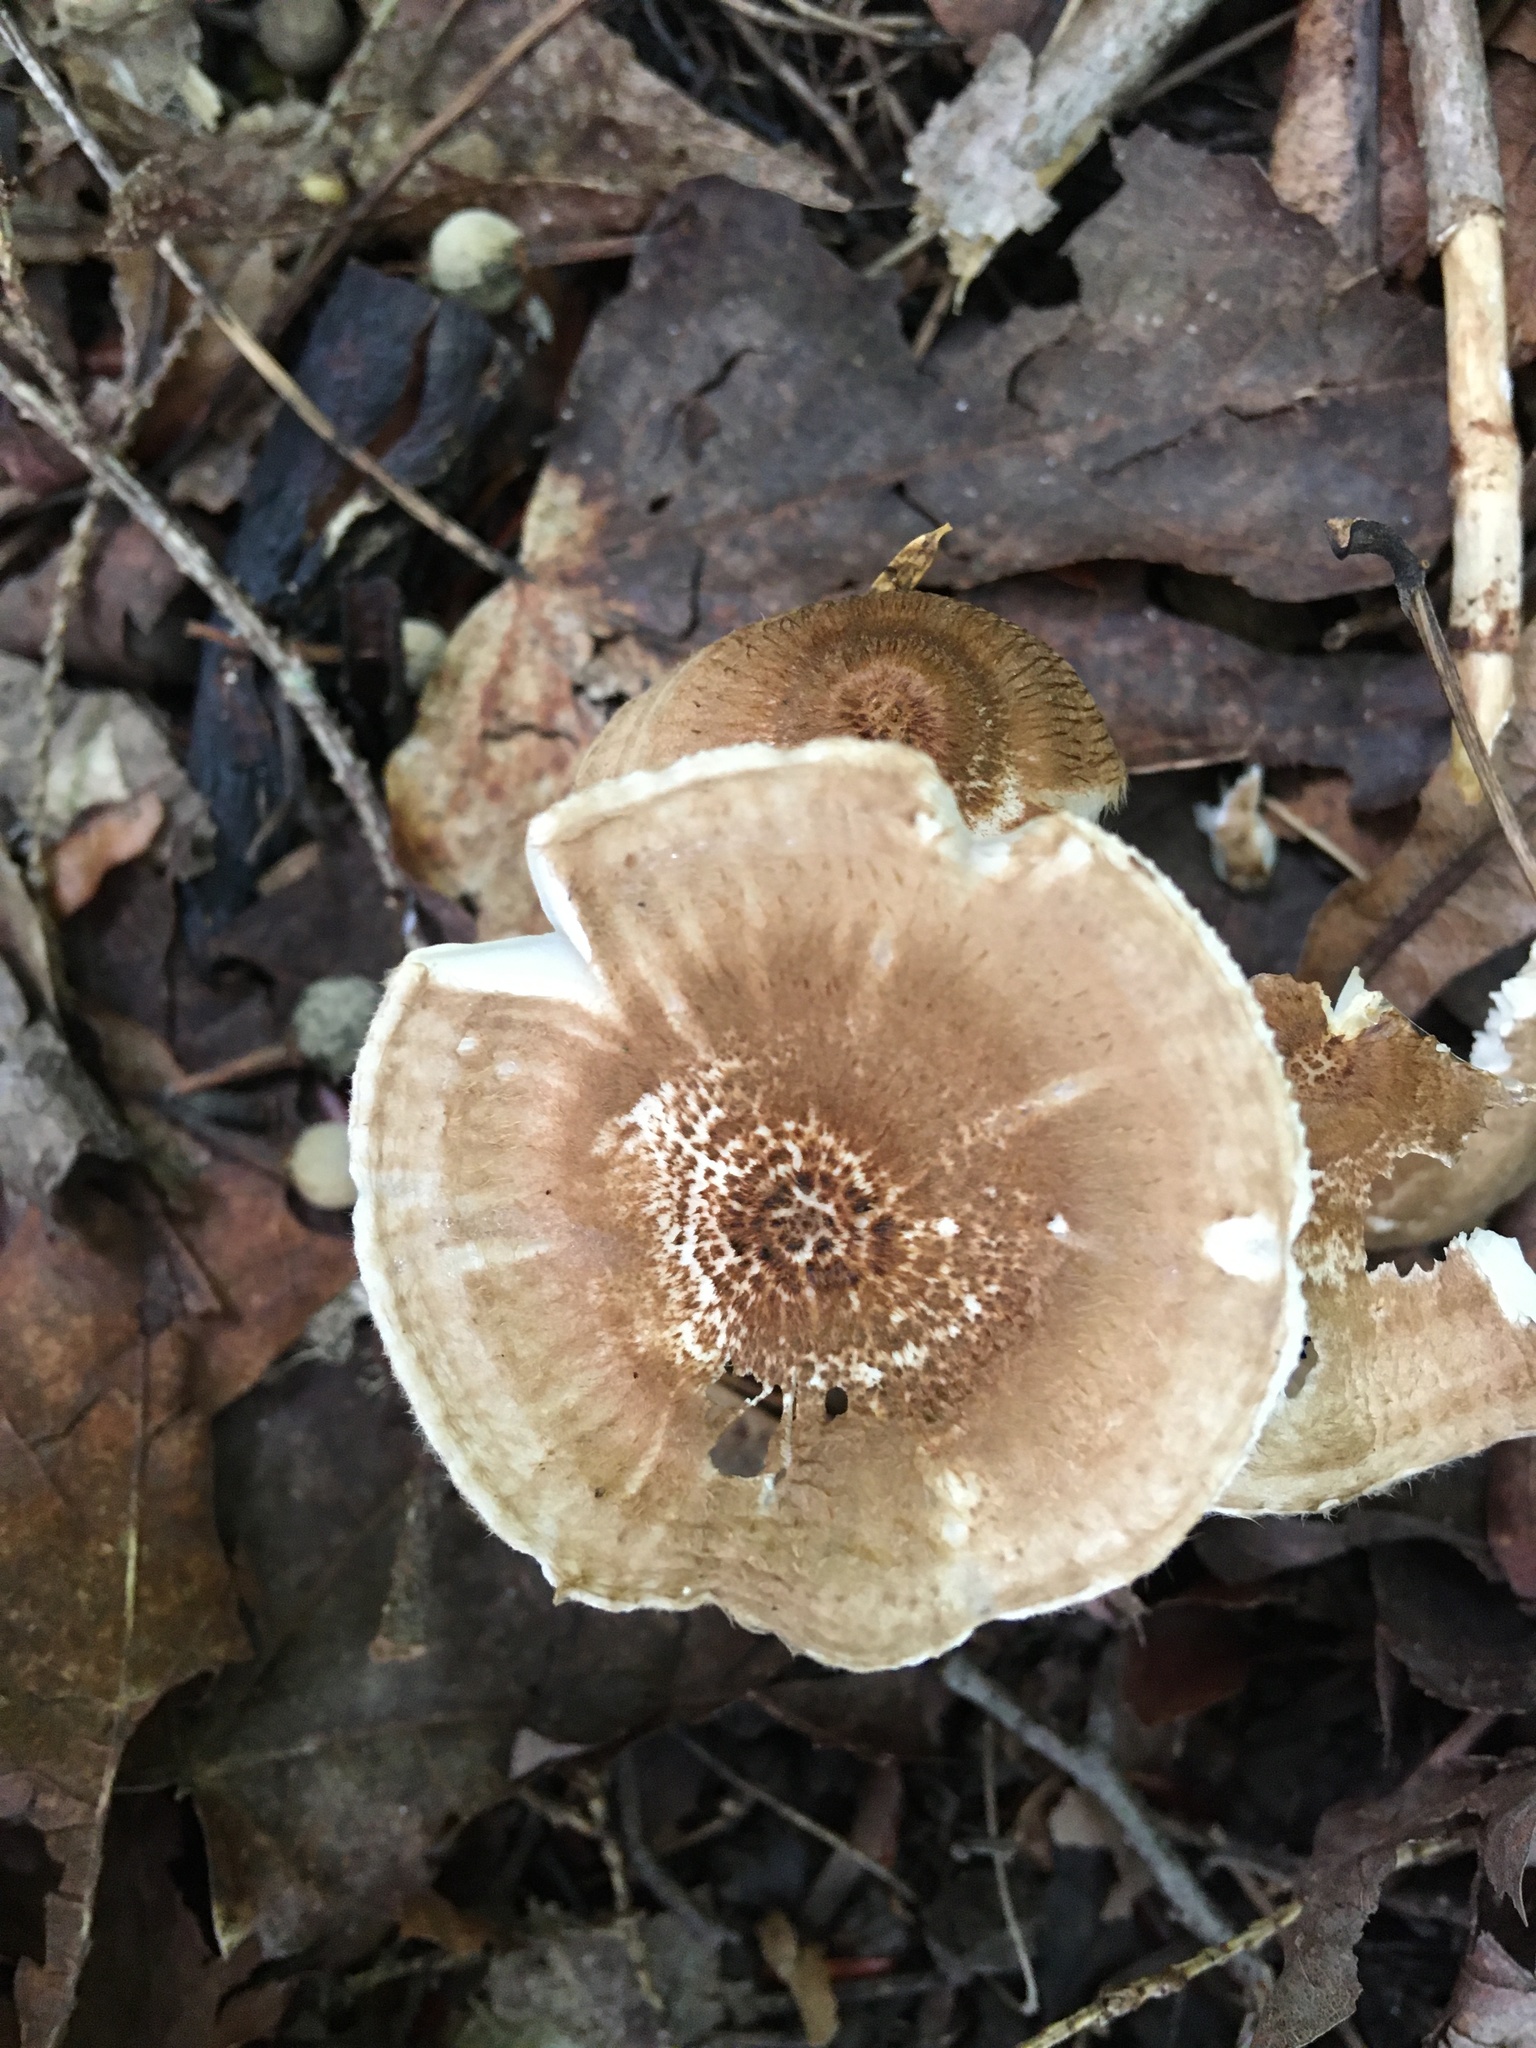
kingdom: Fungi
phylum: Basidiomycota
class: Agaricomycetes
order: Agaricales
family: Marasmiaceae
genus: Crinipellis
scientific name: Crinipellis maxima
